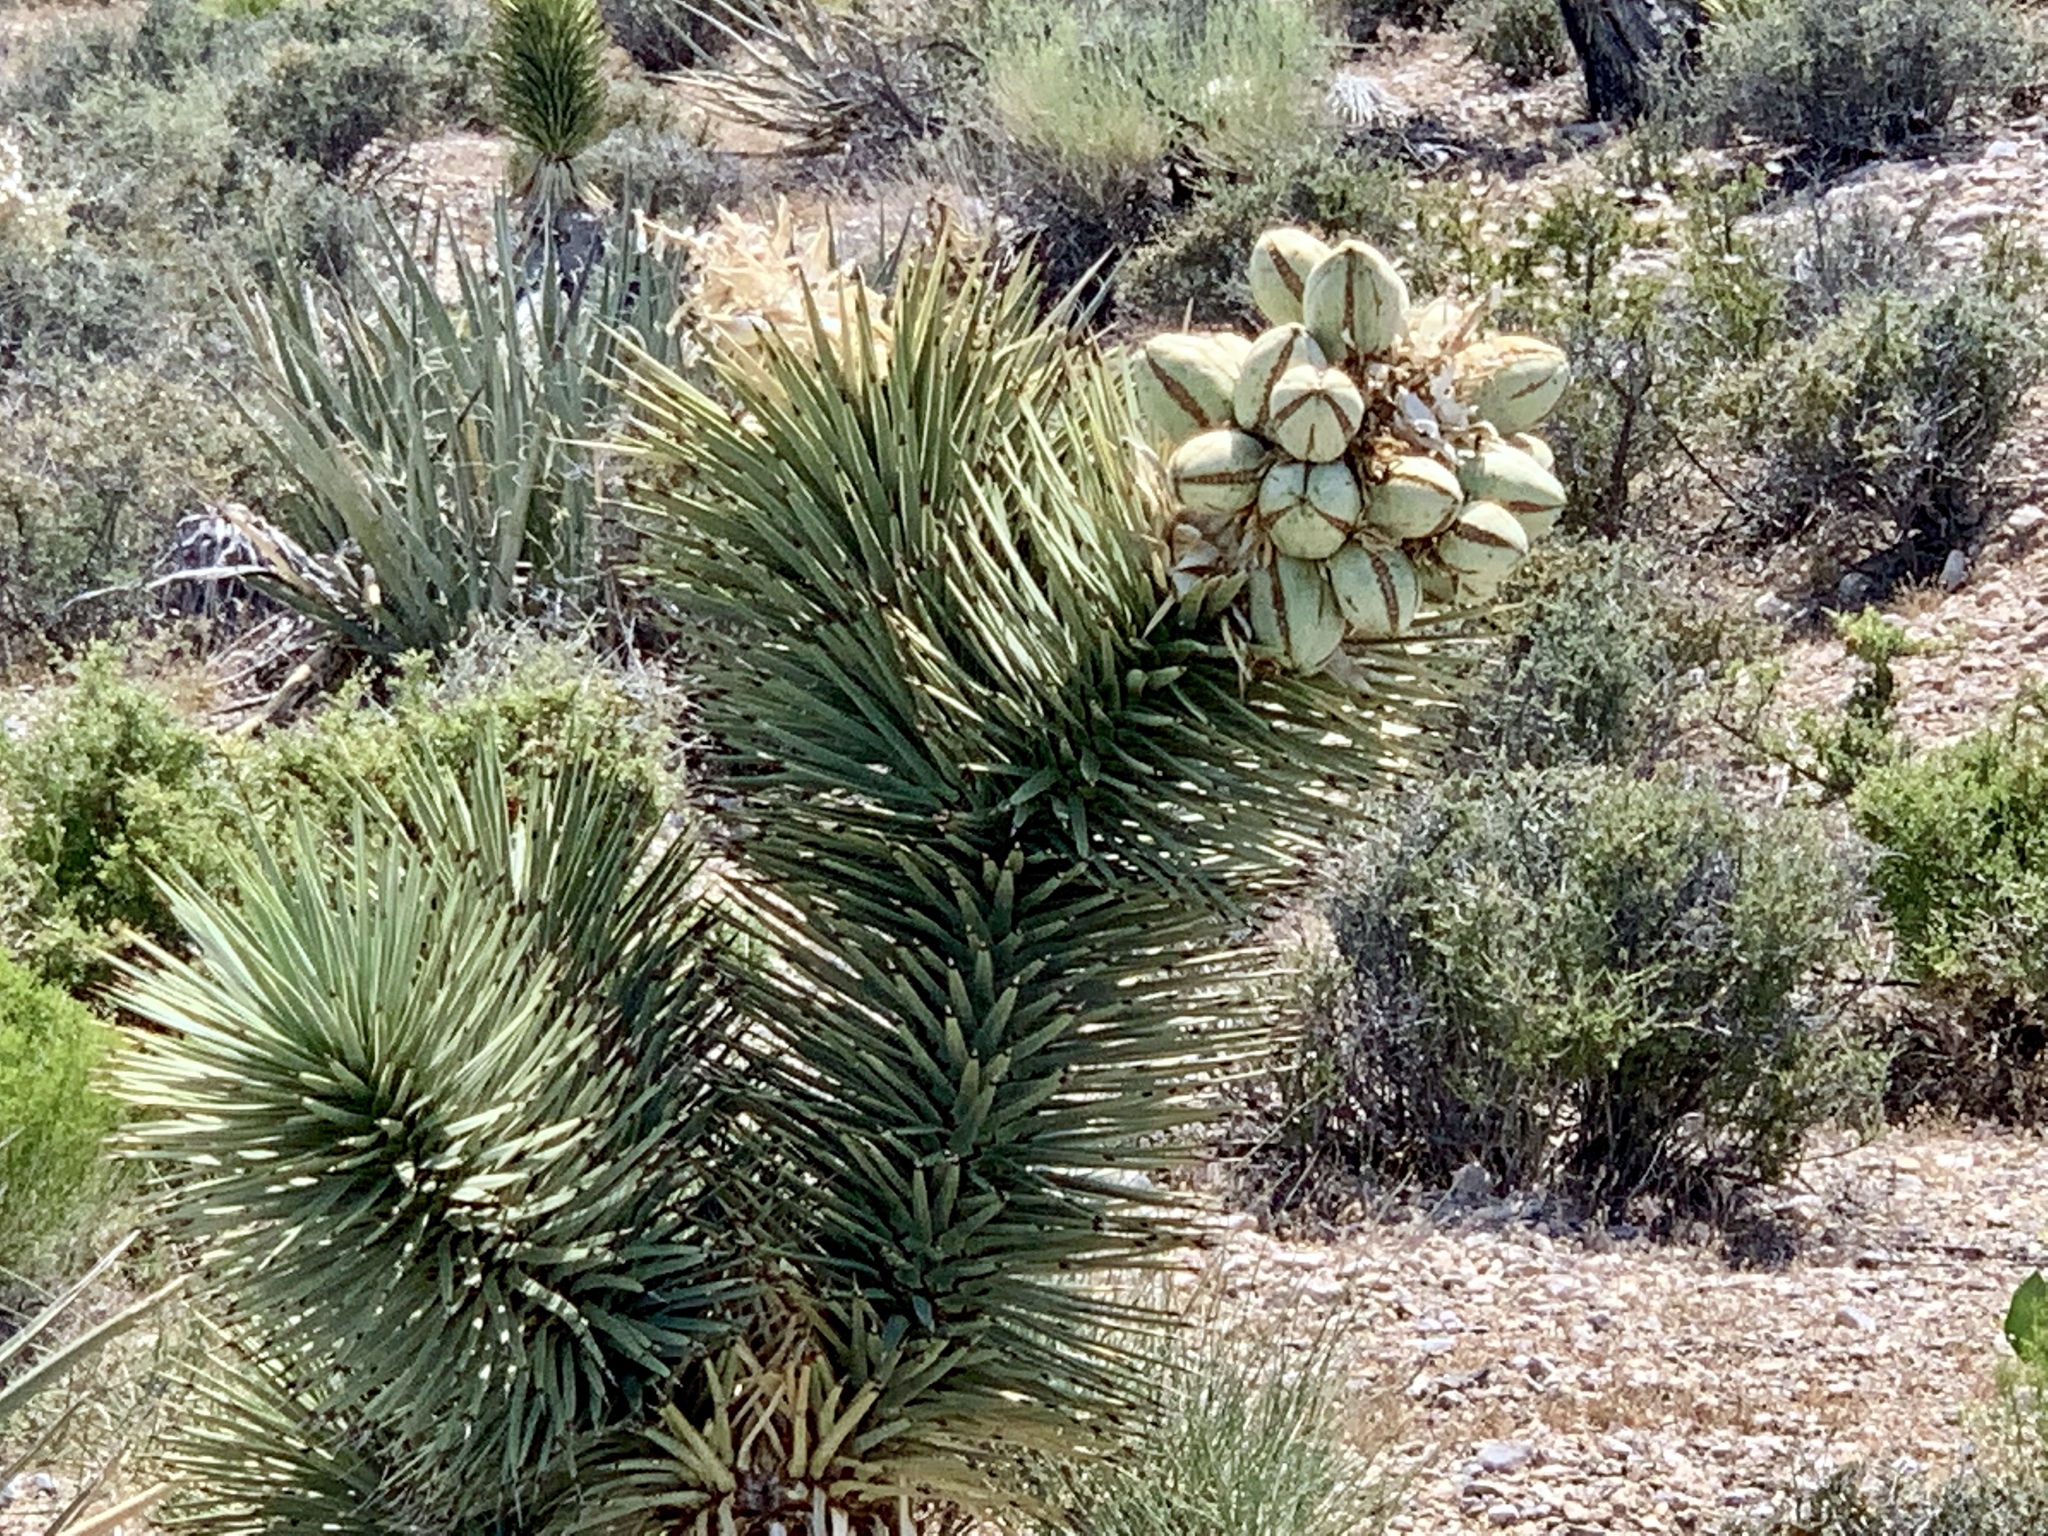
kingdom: Plantae
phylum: Tracheophyta
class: Liliopsida
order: Asparagales
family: Asparagaceae
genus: Yucca
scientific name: Yucca brevifolia
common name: Joshua tree
